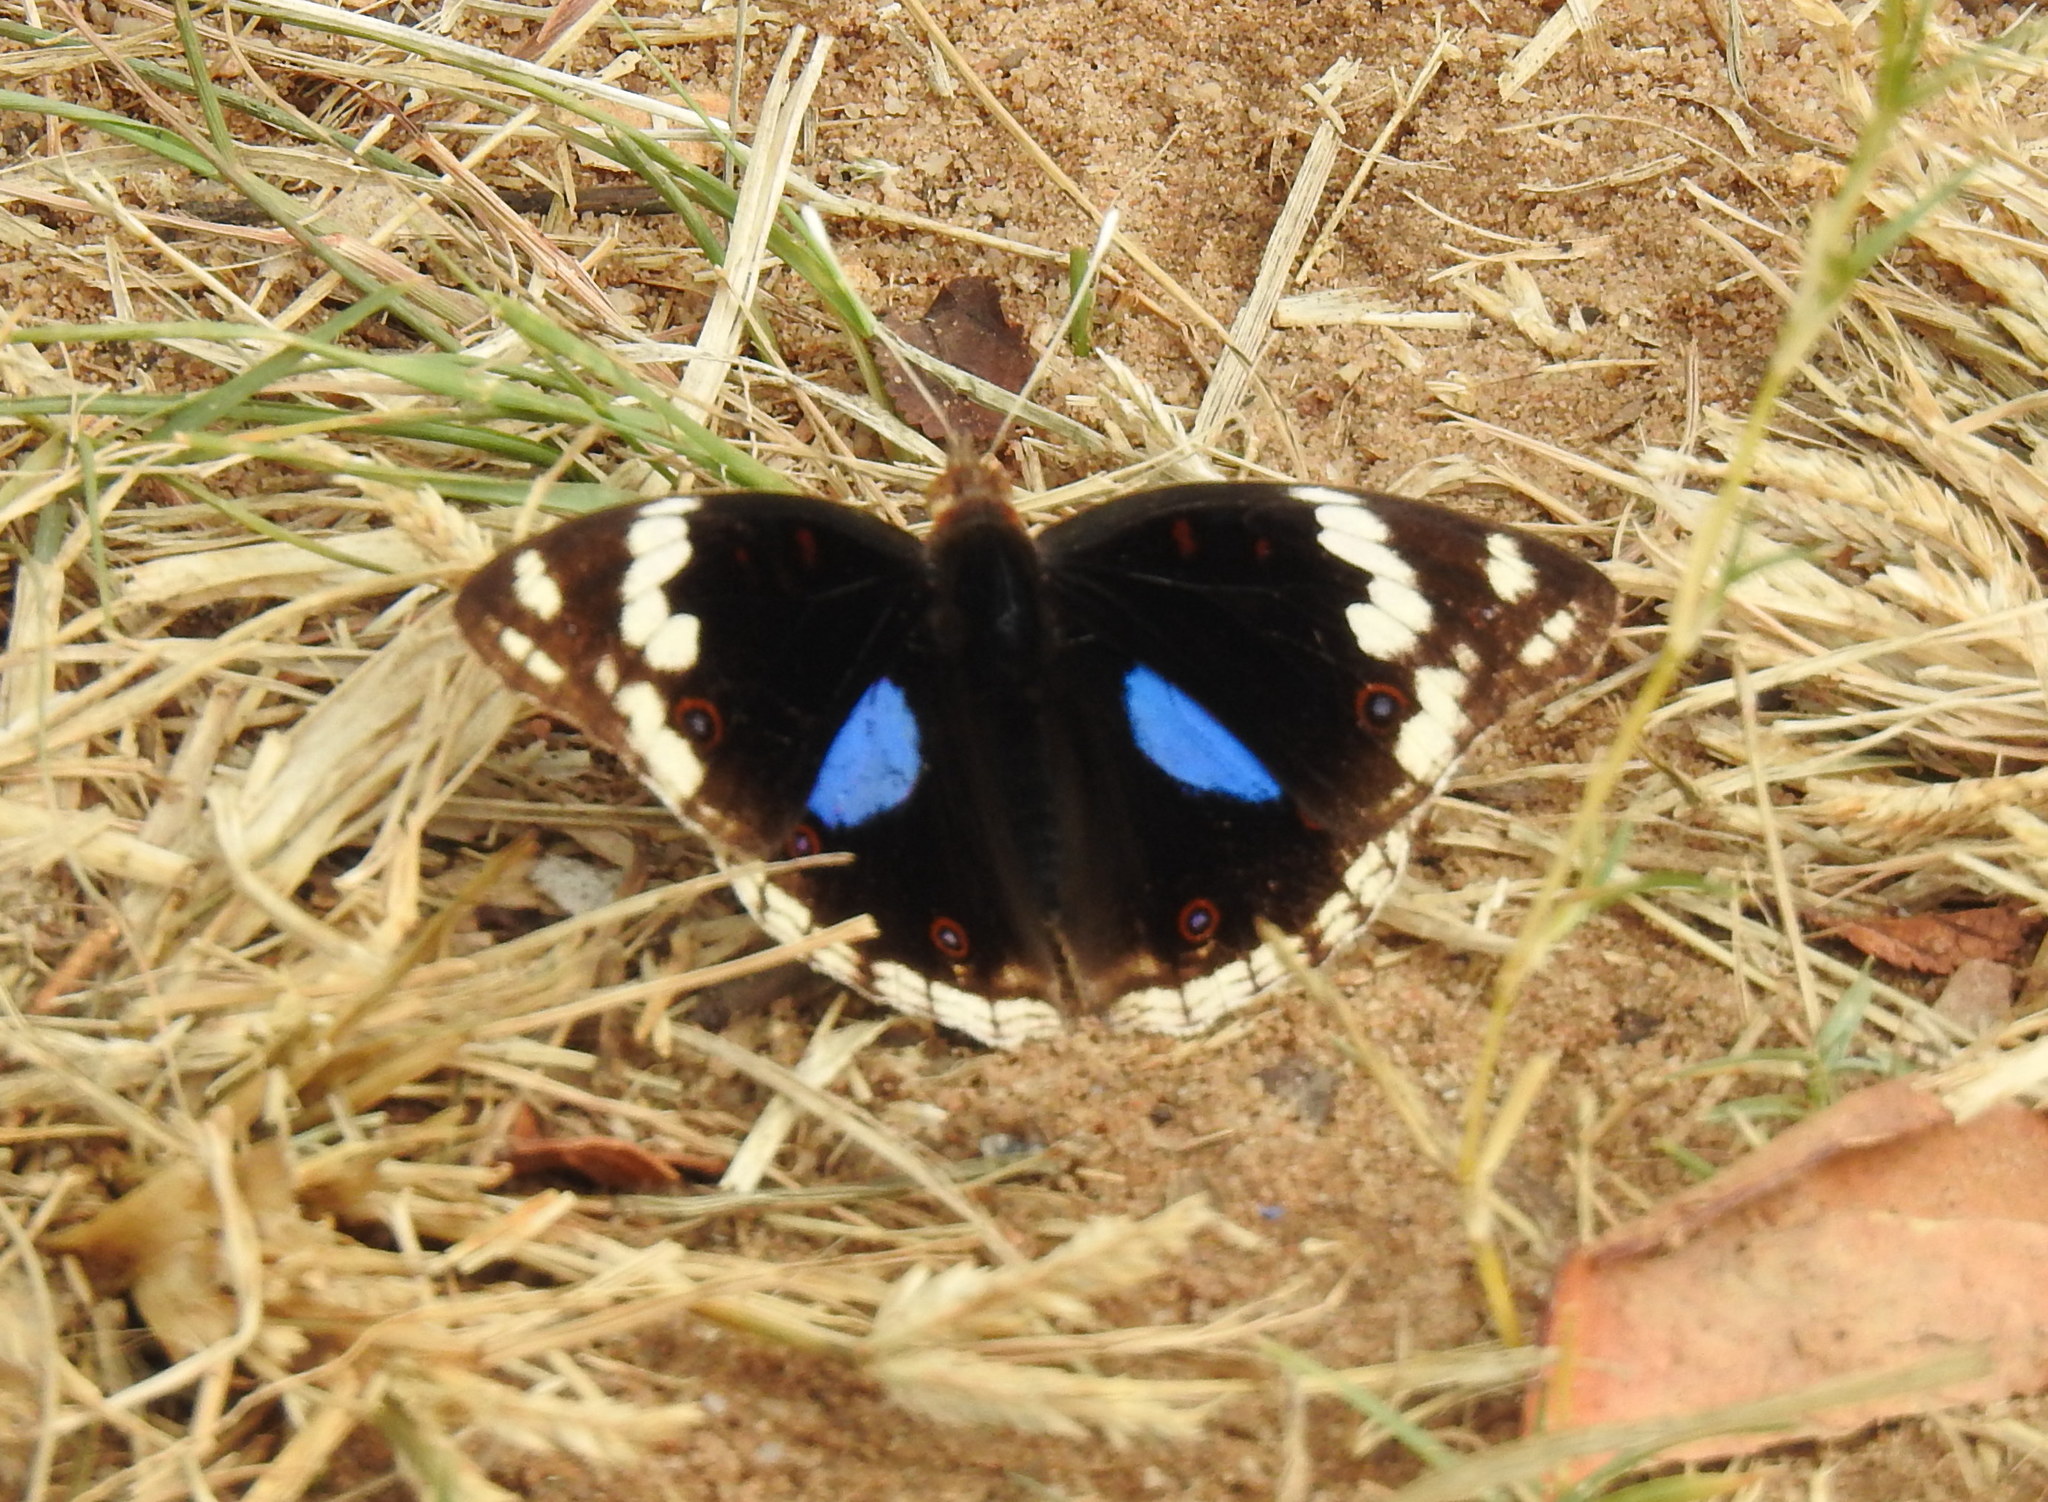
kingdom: Animalia
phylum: Arthropoda
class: Insecta
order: Lepidoptera
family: Nymphalidae
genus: Junonia
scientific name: Junonia oenone
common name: Dark blue pansy
